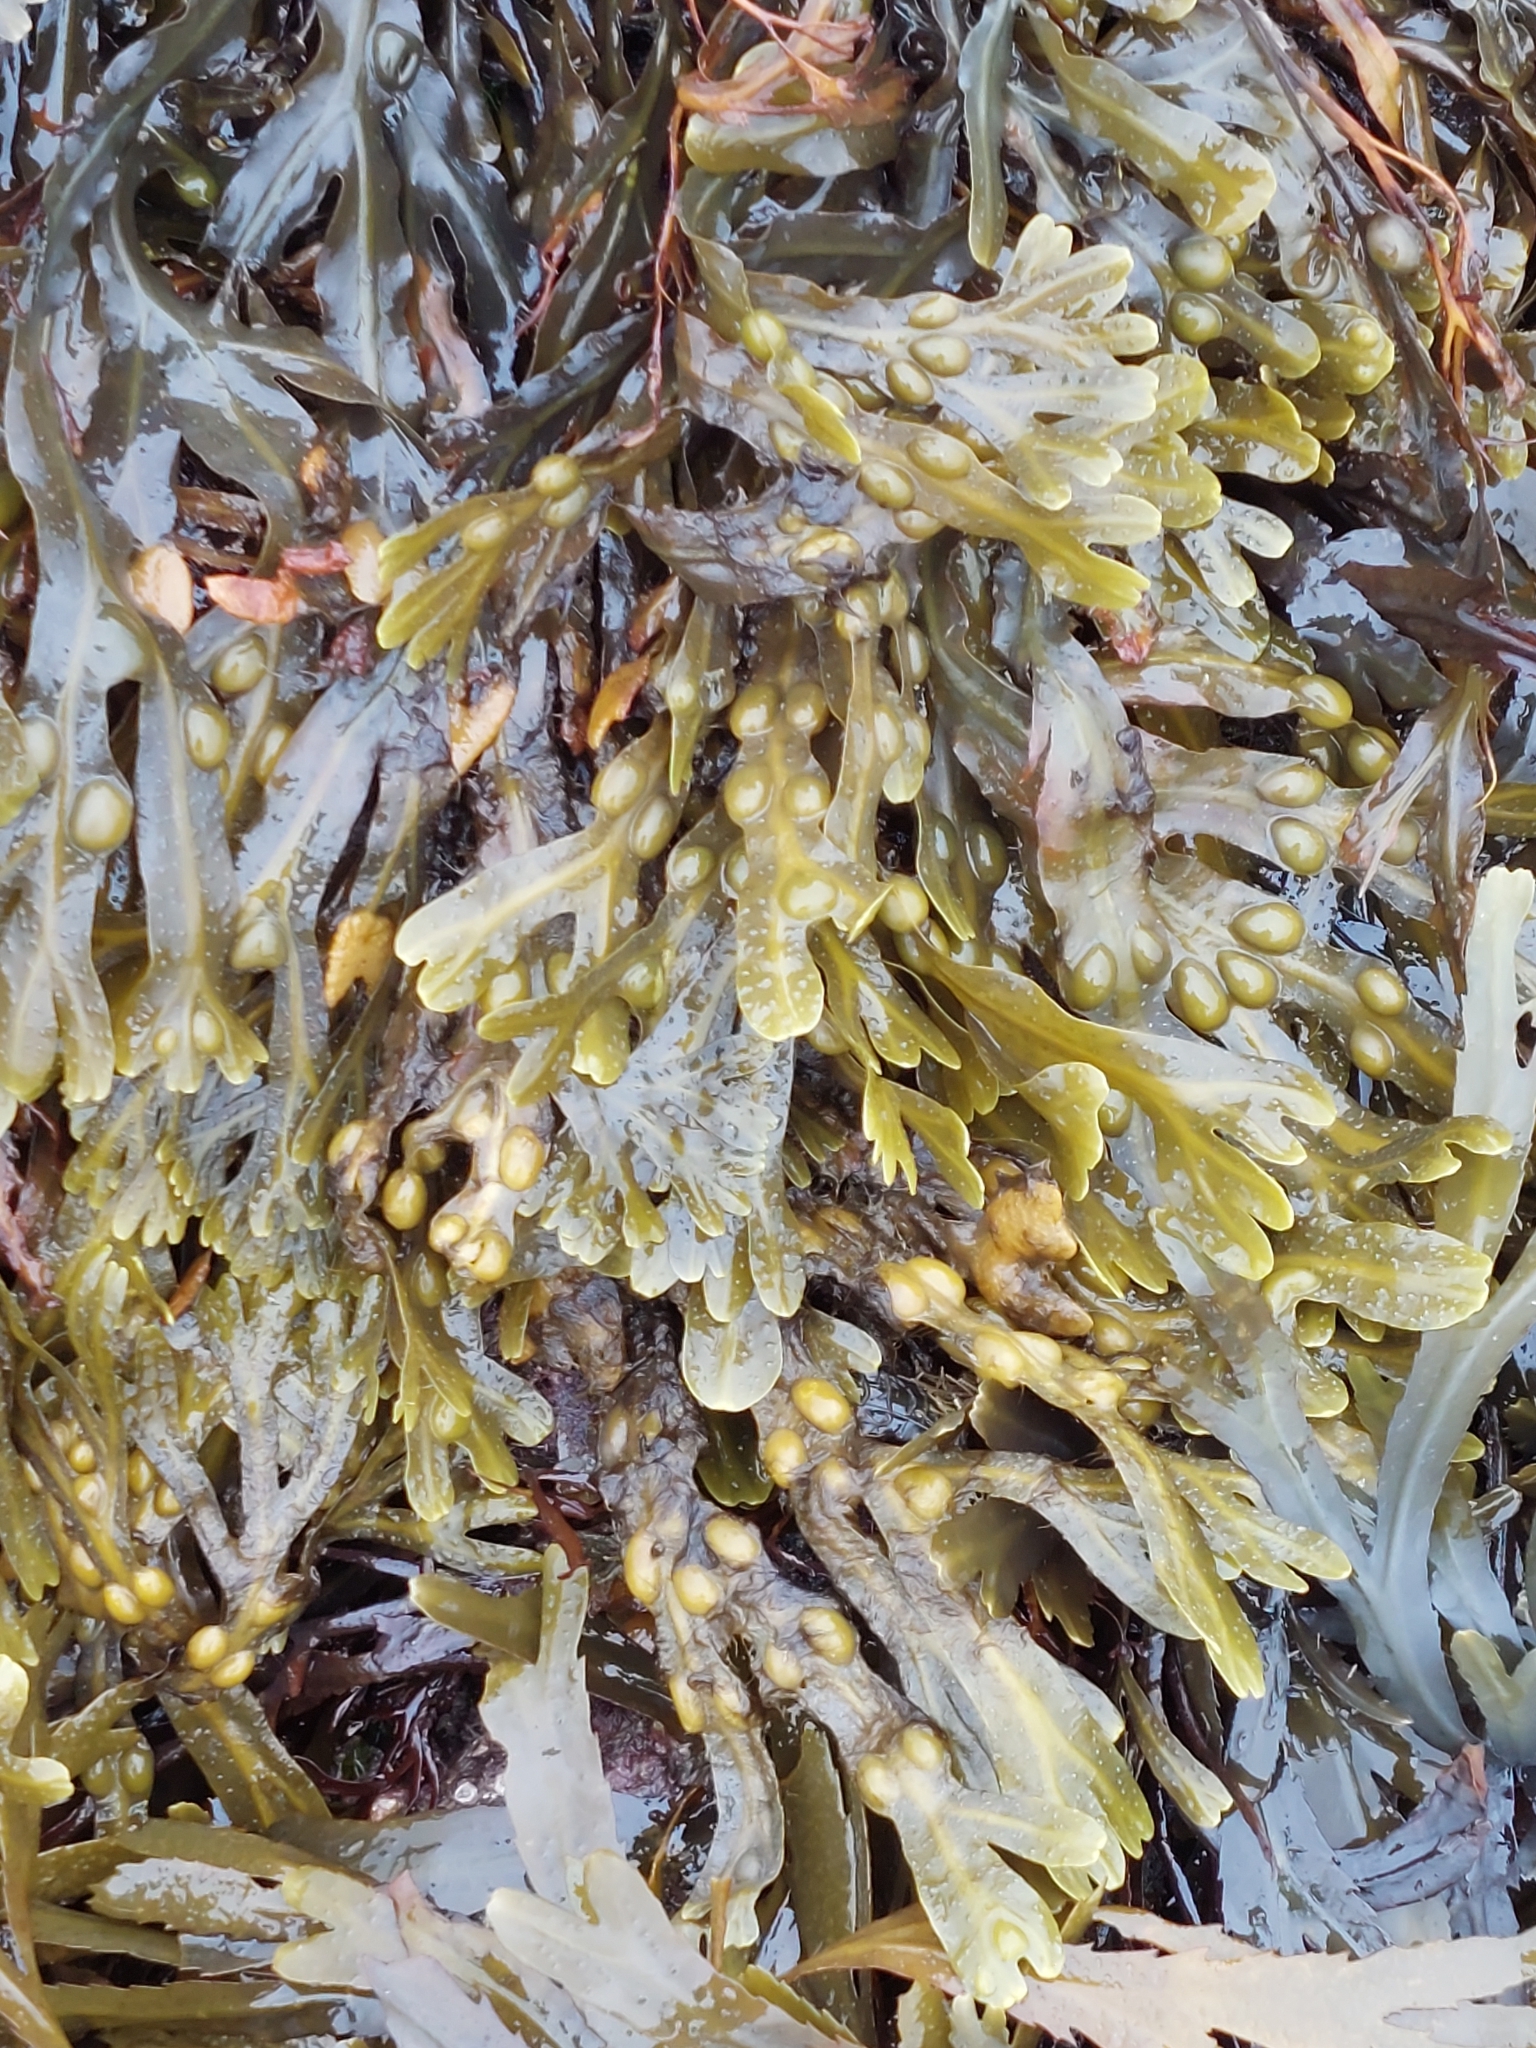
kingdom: Chromista
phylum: Ochrophyta
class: Phaeophyceae
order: Fucales
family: Fucaceae
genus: Fucus
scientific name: Fucus vesiculosus
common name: Bladder wrack
